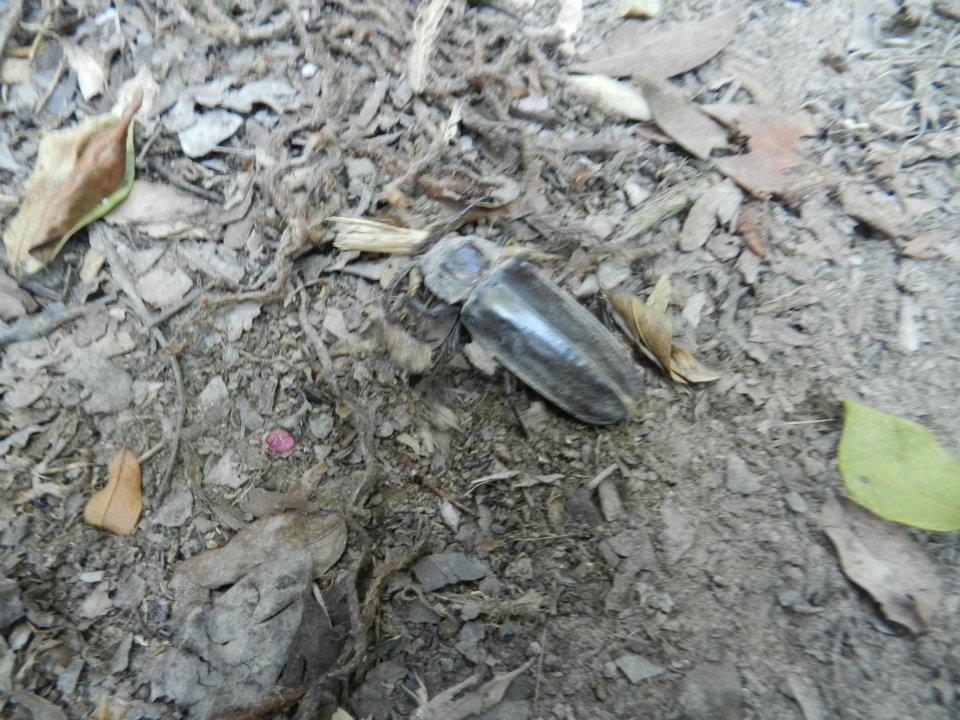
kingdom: Animalia
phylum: Arthropoda
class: Insecta
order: Coleoptera
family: Cerambycidae
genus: Mallodon
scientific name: Mallodon dasystomum
